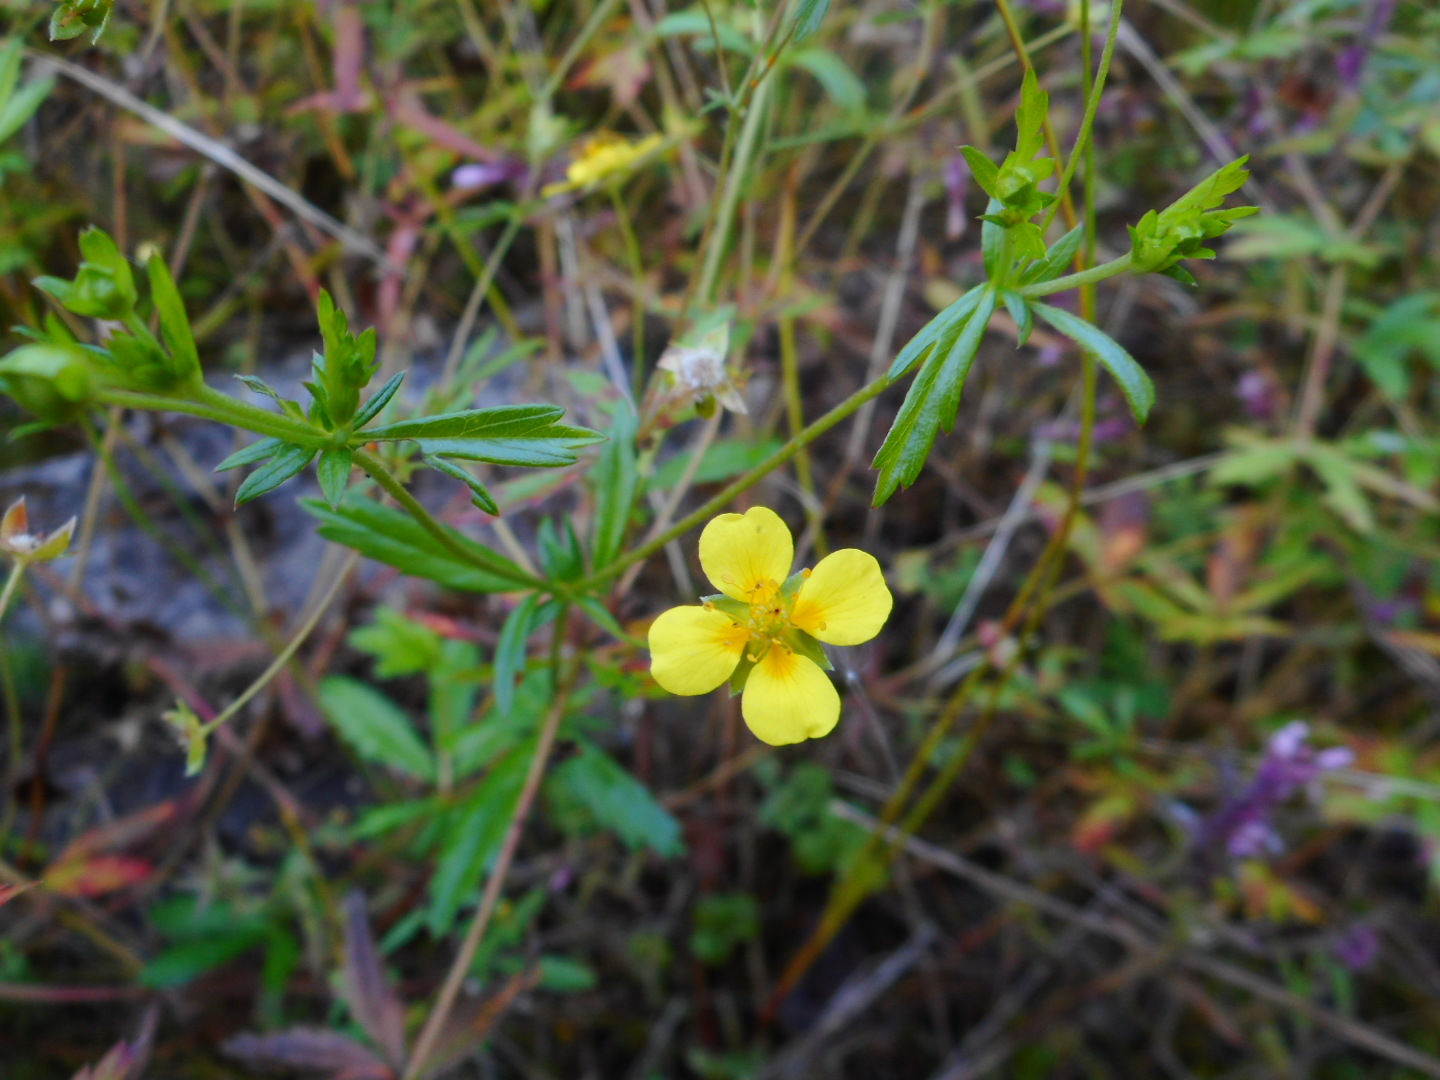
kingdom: Plantae
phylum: Tracheophyta
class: Magnoliopsida
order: Rosales
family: Rosaceae
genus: Potentilla
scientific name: Potentilla erecta
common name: Tormentil
